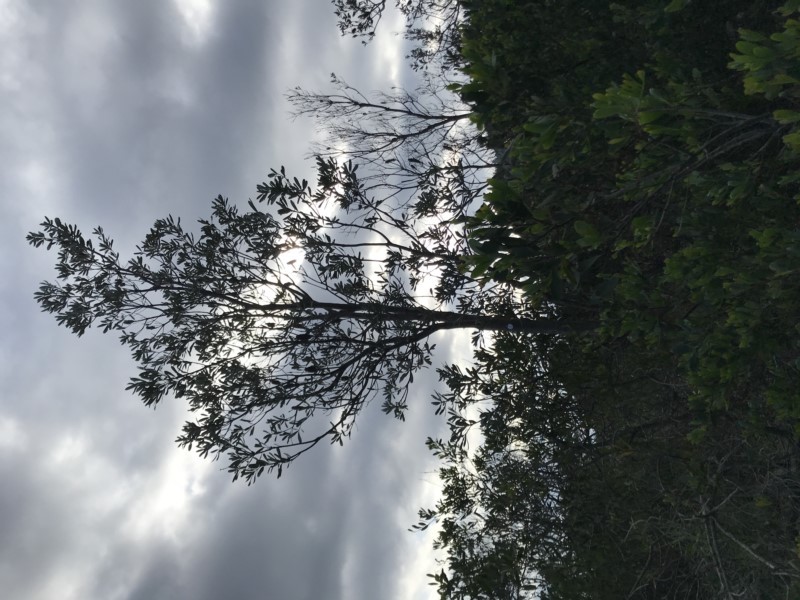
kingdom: Plantae
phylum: Tracheophyta
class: Magnoliopsida
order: Proteales
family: Proteaceae
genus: Banksia
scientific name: Banksia integrifolia
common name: White-honeysuckle
